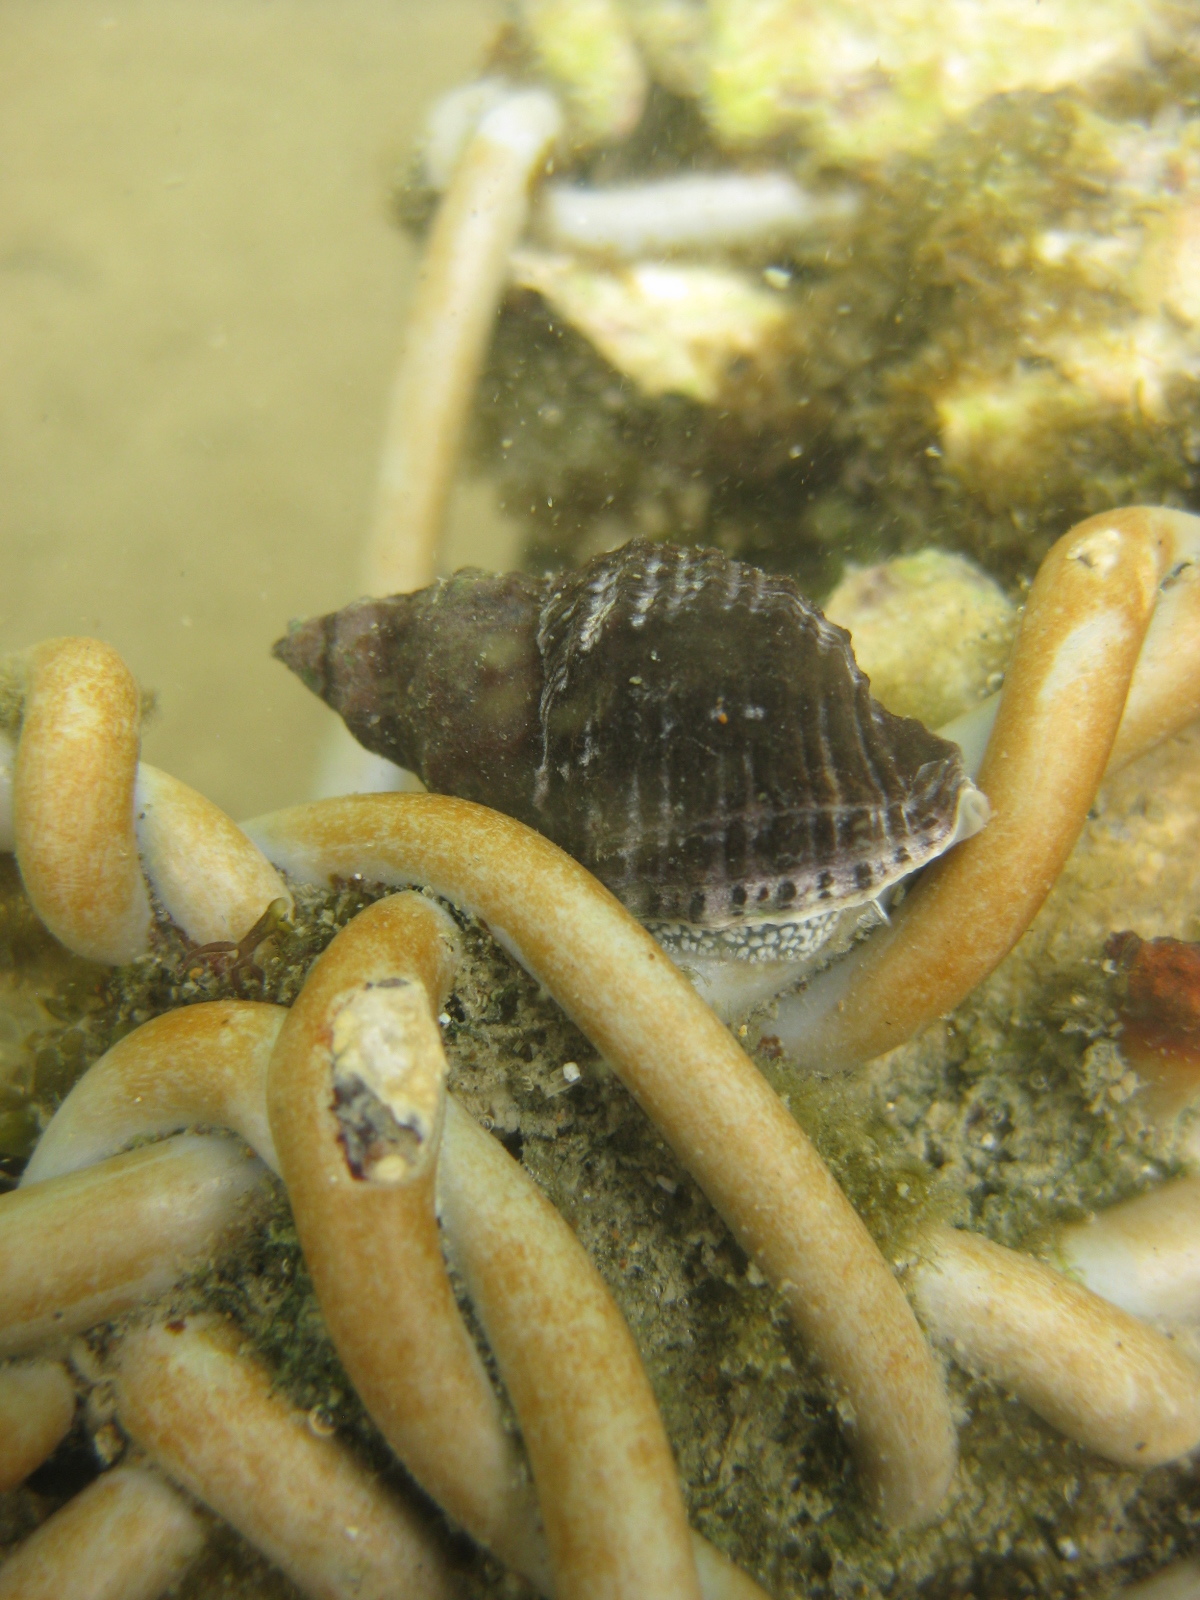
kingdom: Animalia
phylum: Mollusca
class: Gastropoda
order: Neogastropoda
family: Muricidae
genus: Haustrum
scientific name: Haustrum albomarginatum
